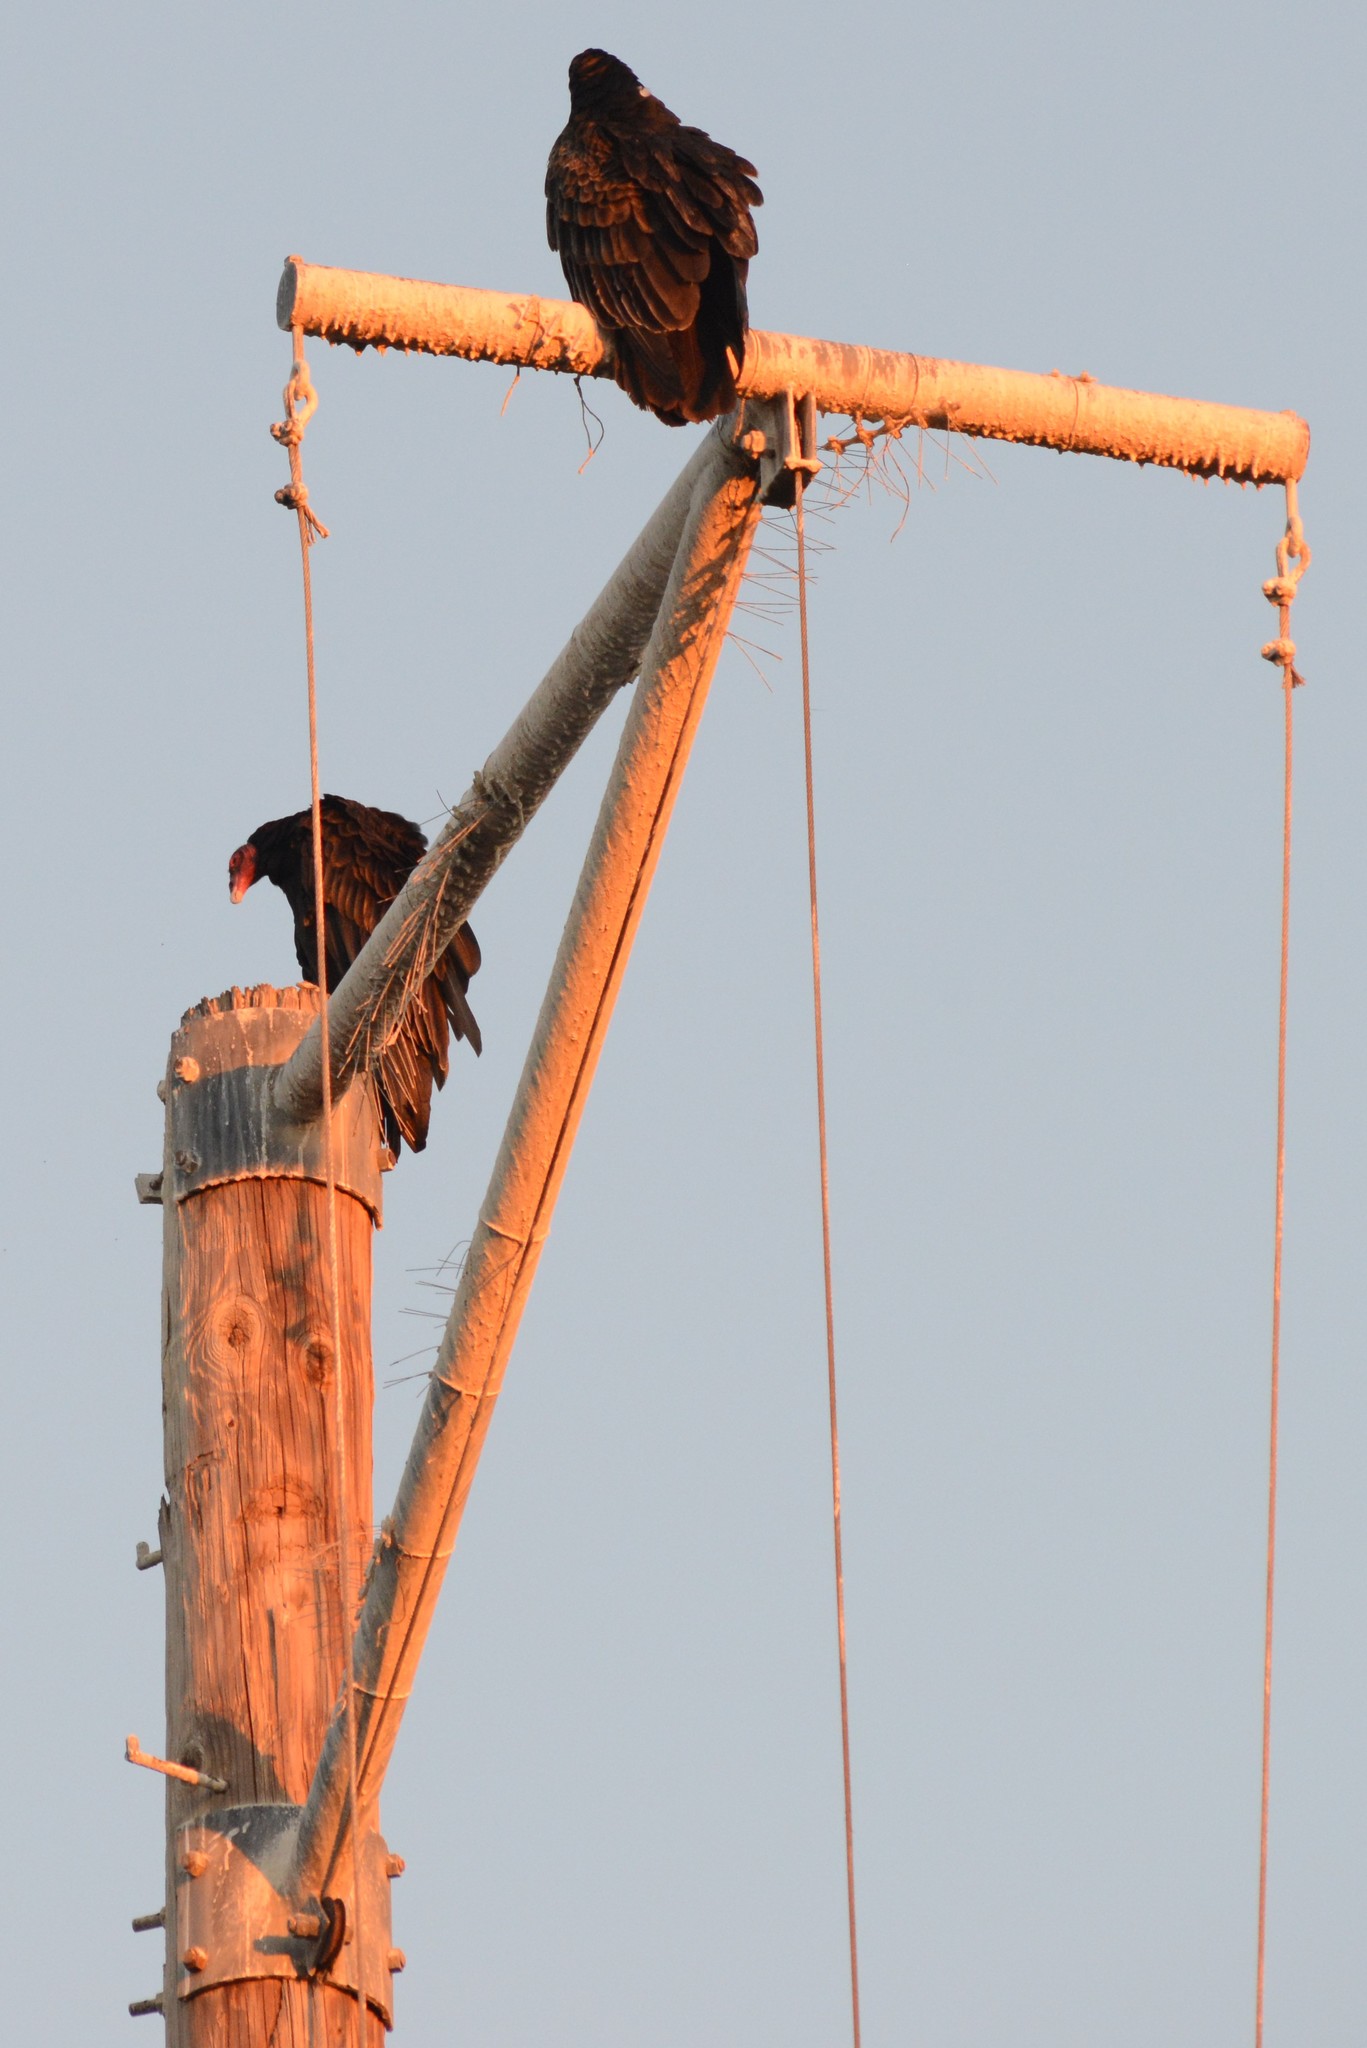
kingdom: Animalia
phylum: Chordata
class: Aves
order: Accipitriformes
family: Cathartidae
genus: Cathartes
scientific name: Cathartes aura
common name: Turkey vulture
